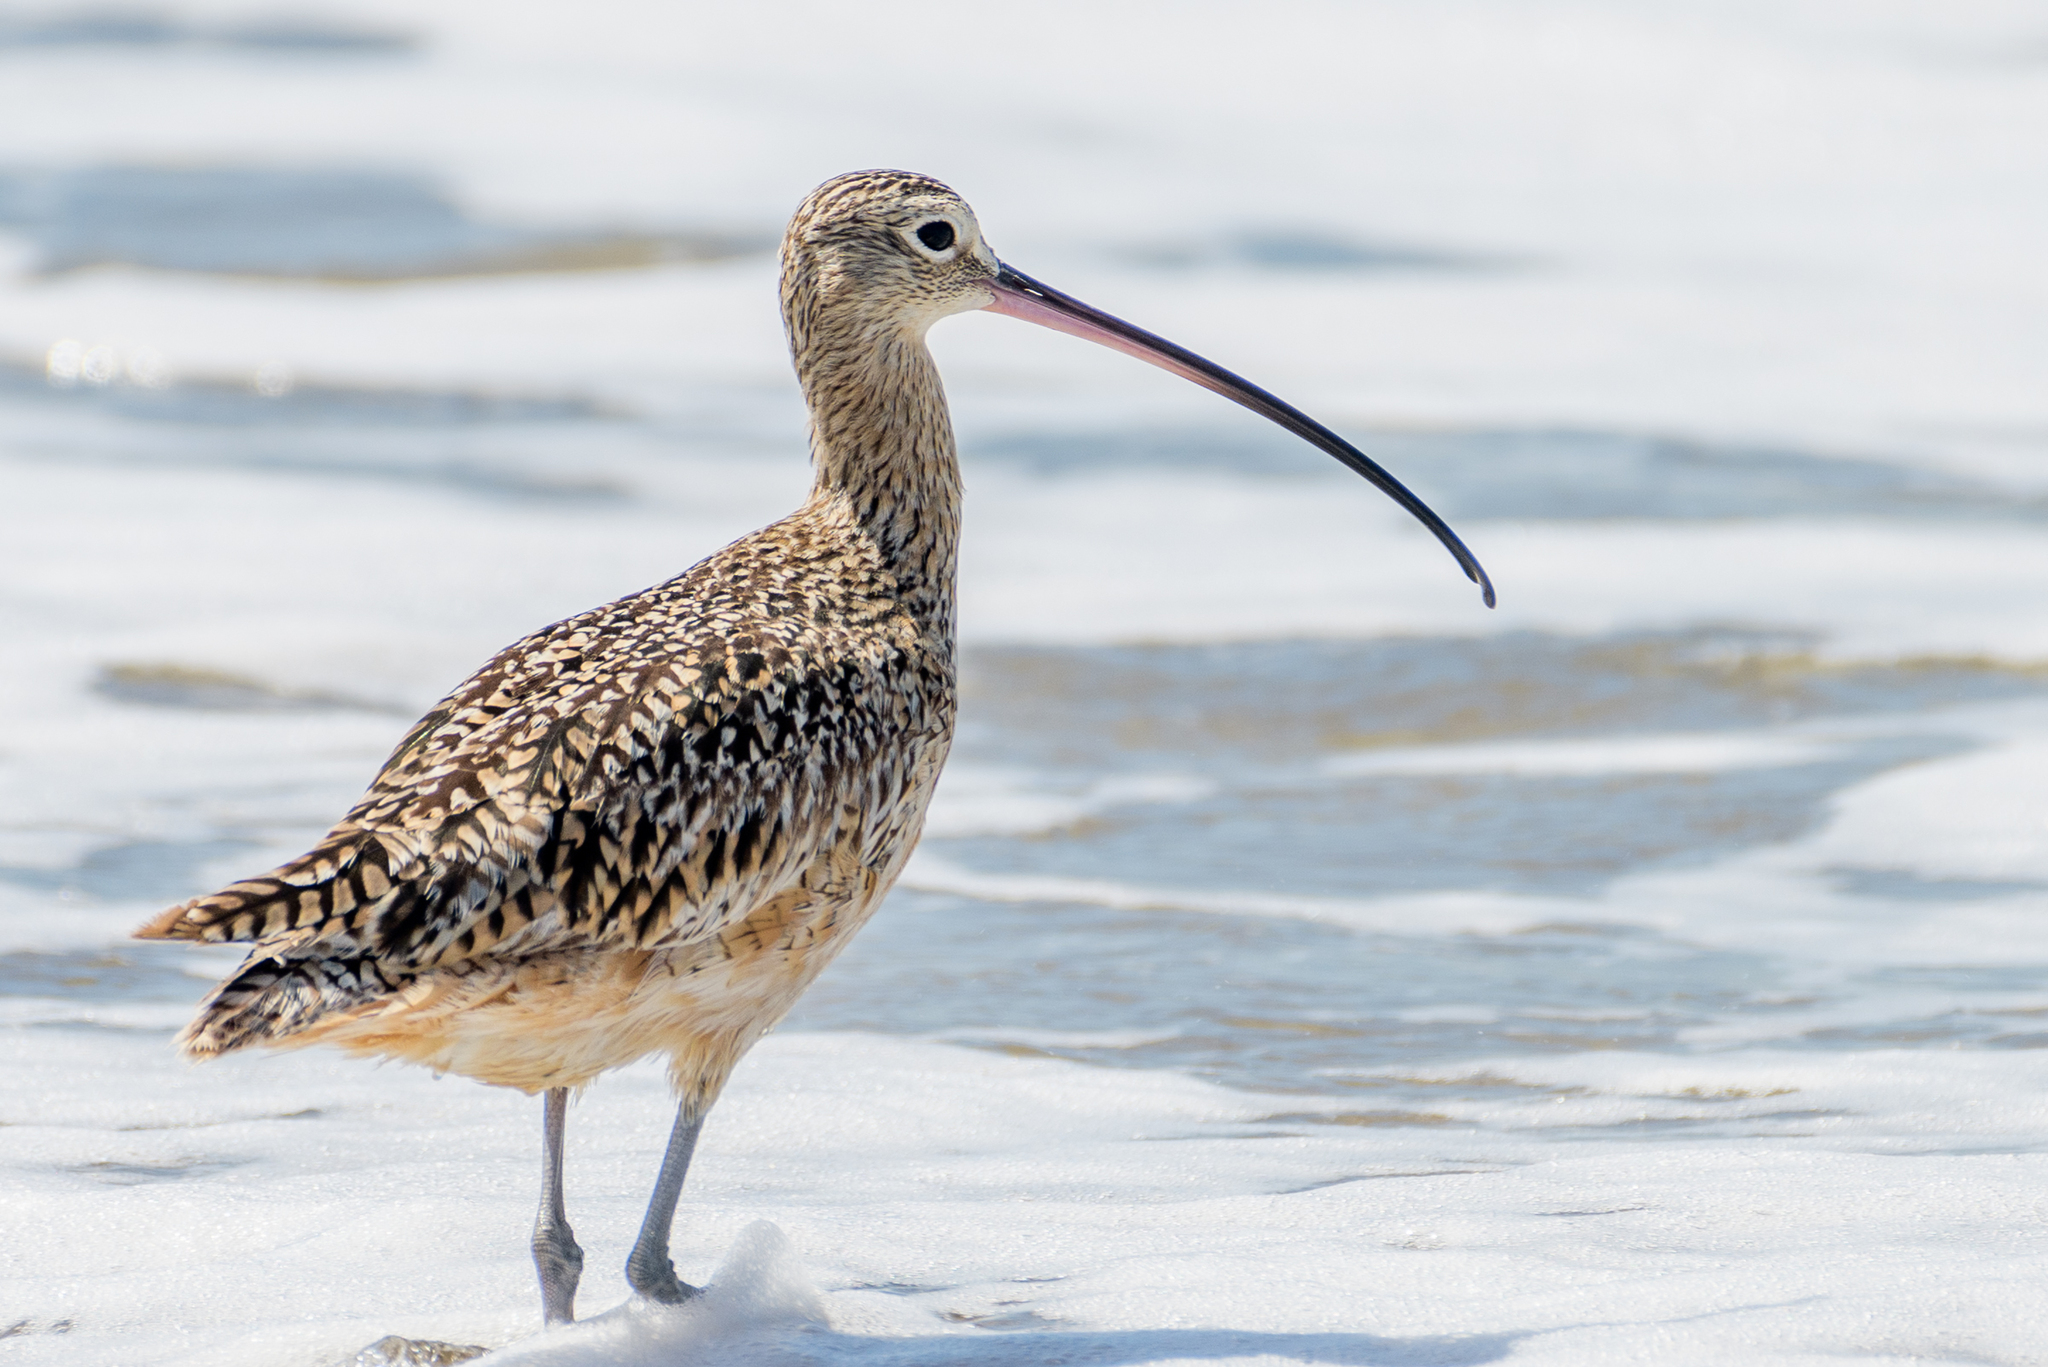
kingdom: Animalia
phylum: Chordata
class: Aves
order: Charadriiformes
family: Scolopacidae
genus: Numenius
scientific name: Numenius americanus
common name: Long-billed curlew
